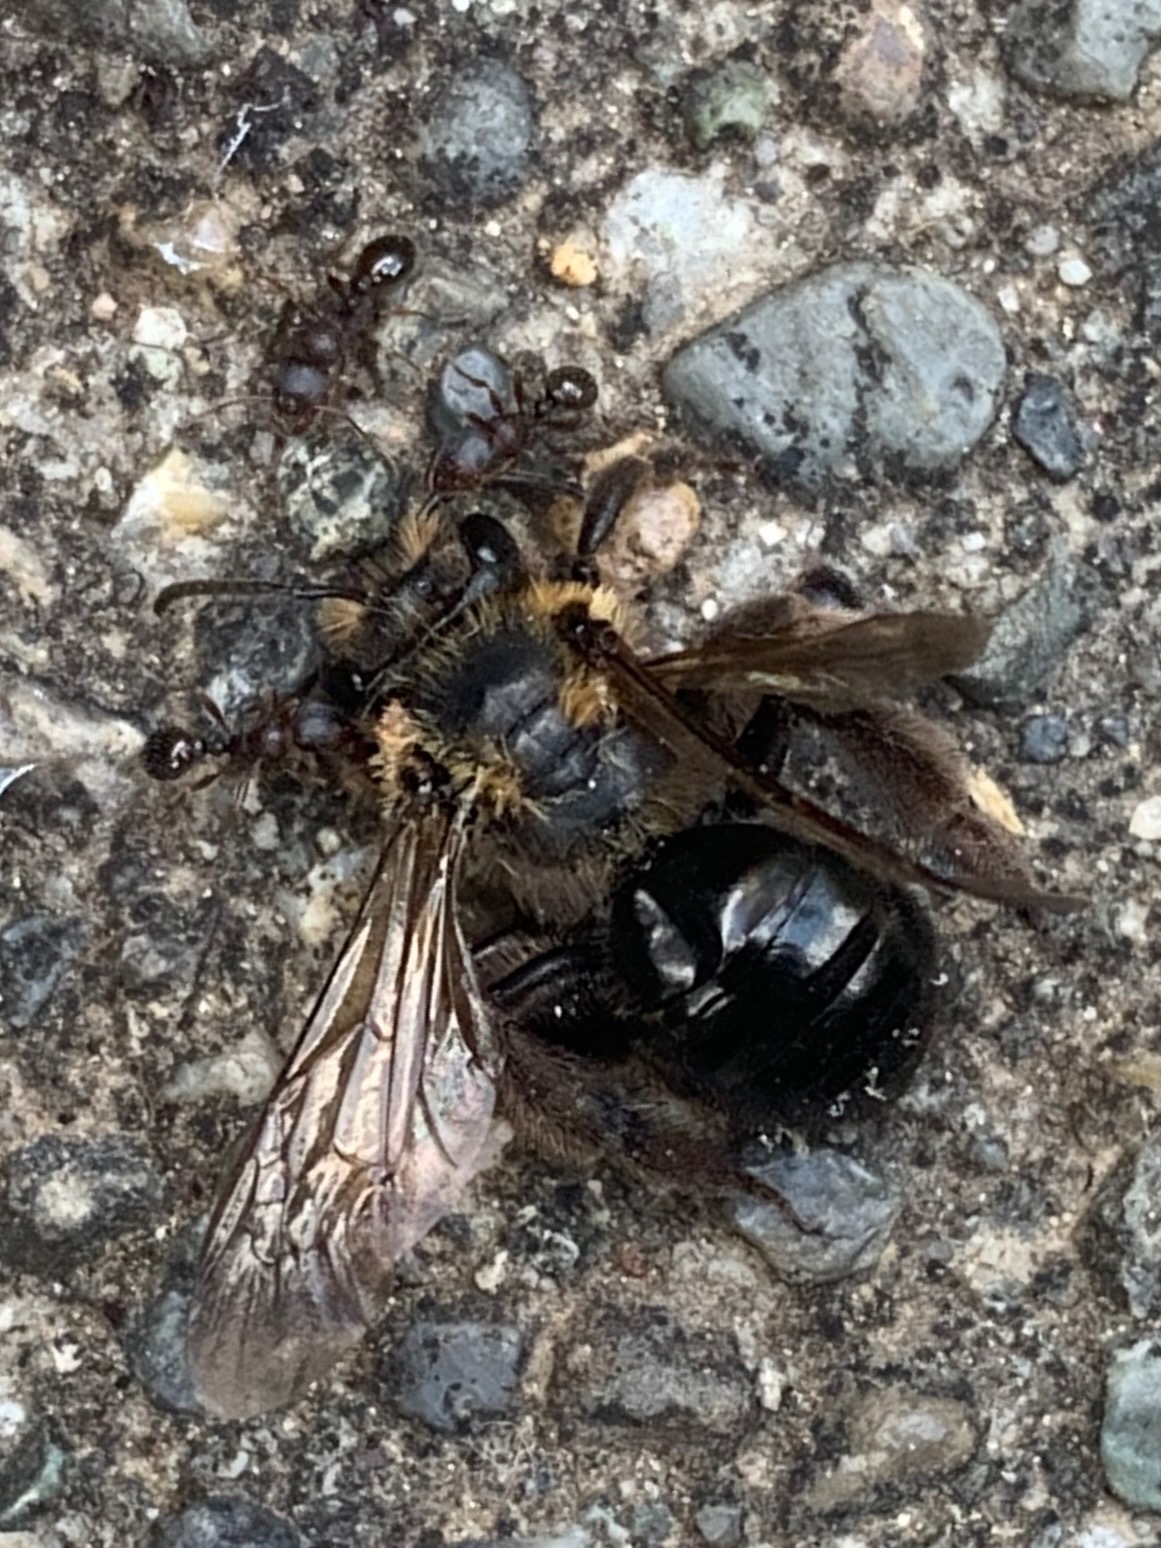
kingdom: Animalia
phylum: Arthropoda
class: Insecta
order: Hymenoptera
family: Formicidae
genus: Tetramorium
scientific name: Tetramorium immigrans
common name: Pavement ant
